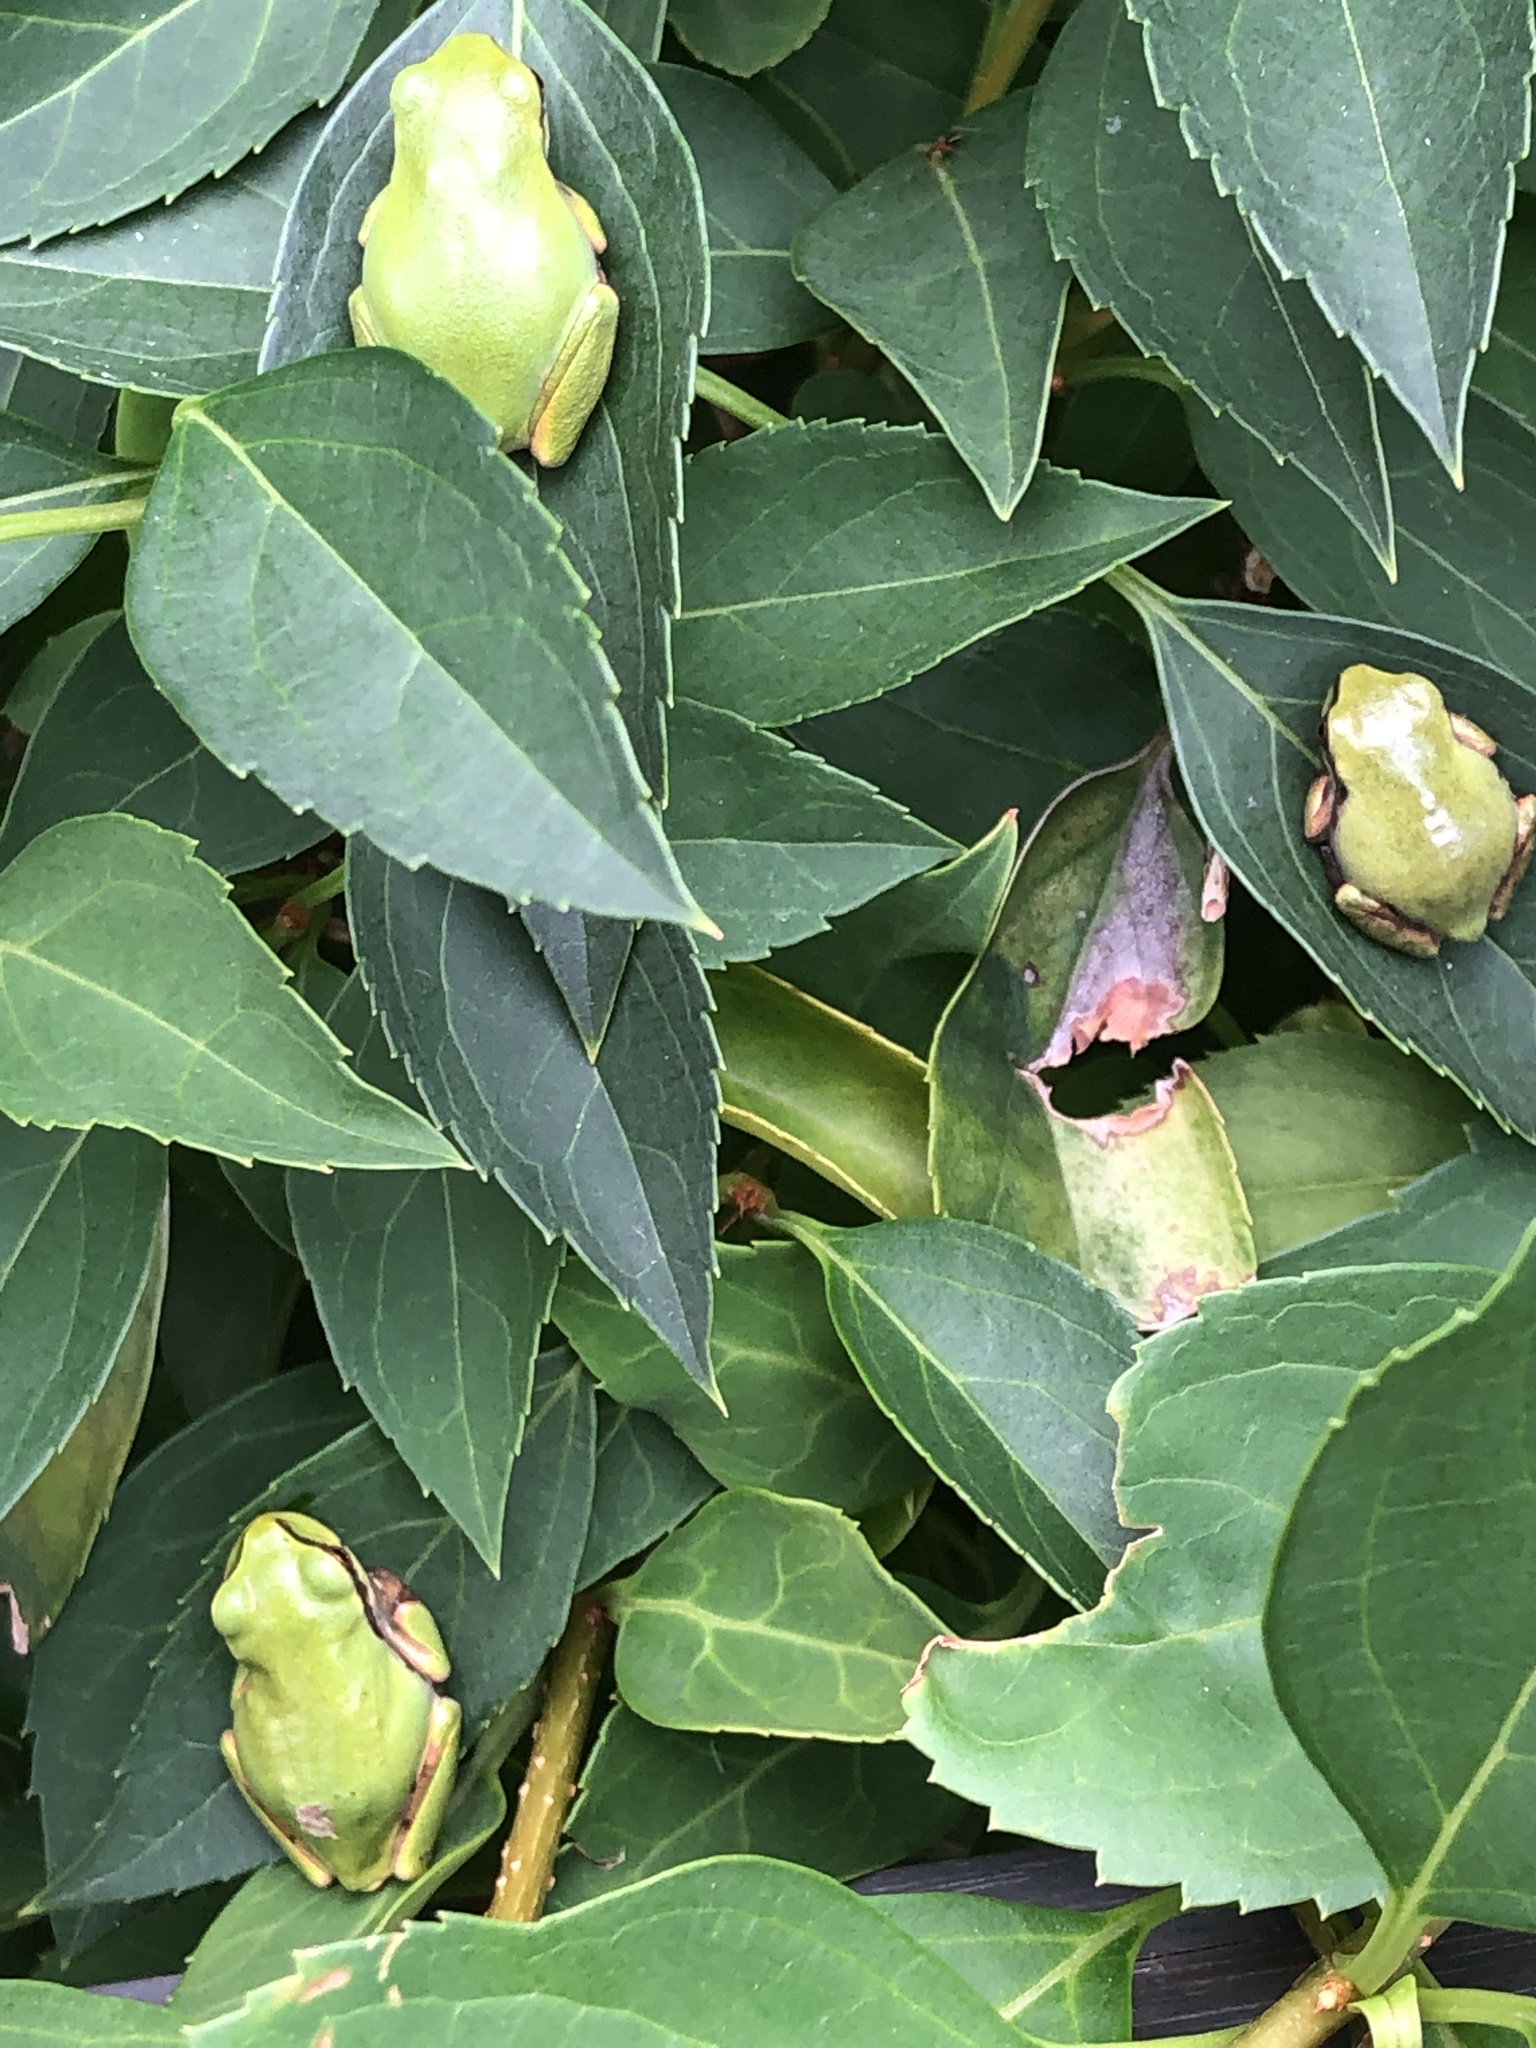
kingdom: Animalia
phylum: Chordata
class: Amphibia
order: Anura
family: Hylidae
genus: Dryophytes
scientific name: Dryophytes japonicus
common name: Japanese treefrog
